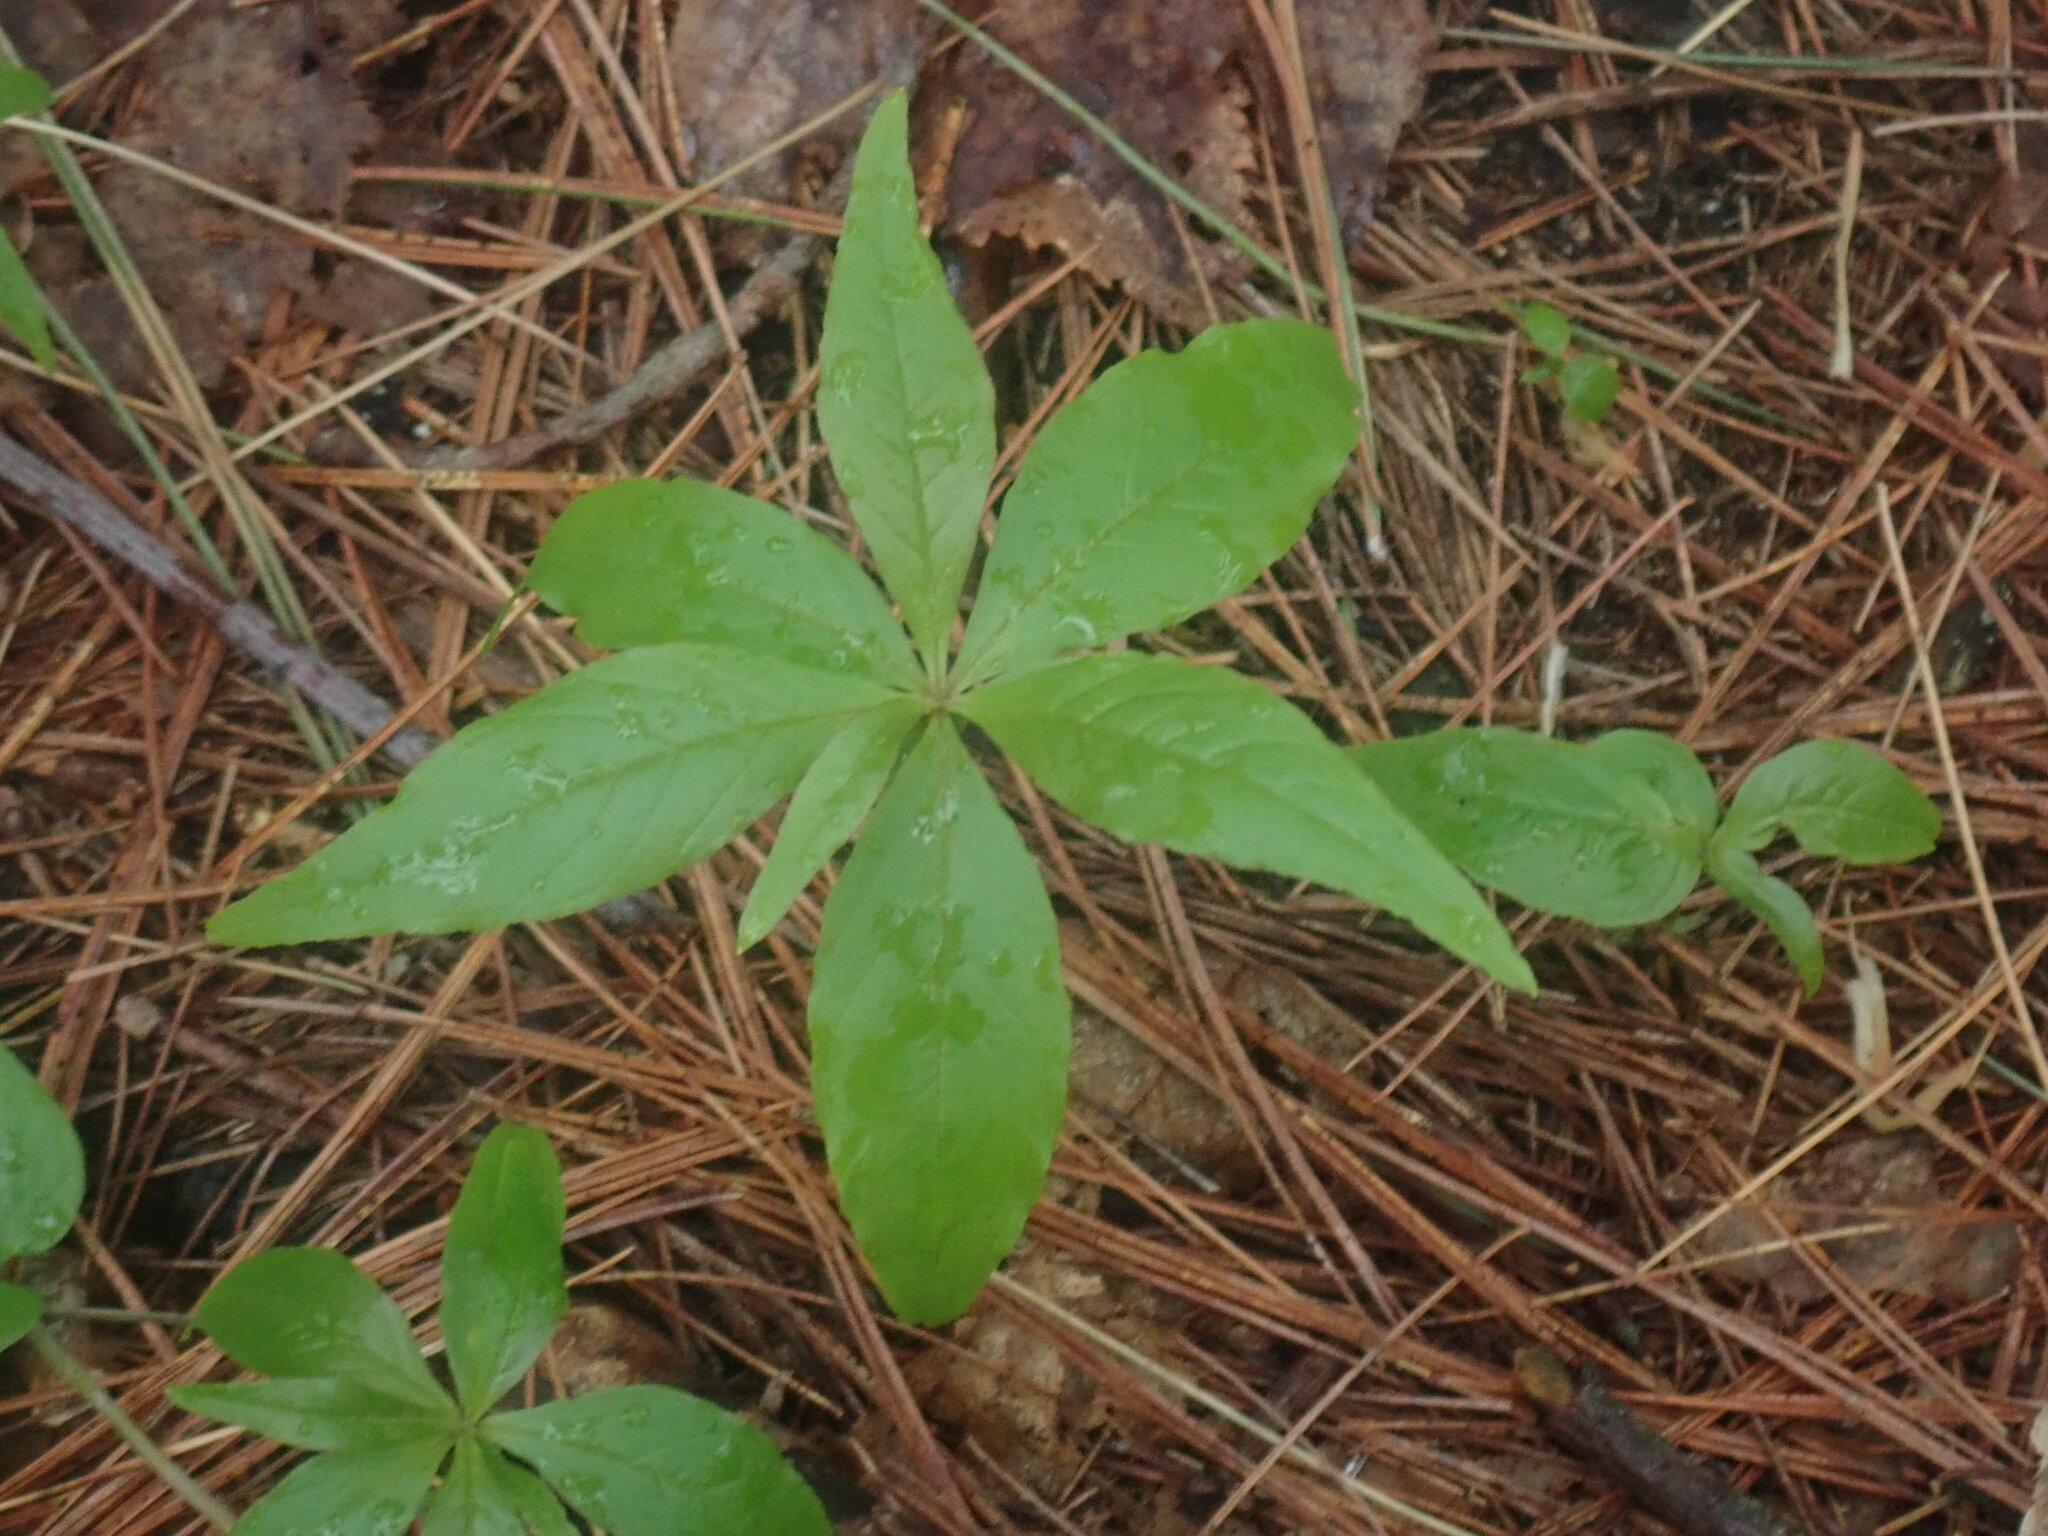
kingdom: Plantae
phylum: Tracheophyta
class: Magnoliopsida
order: Ericales
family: Primulaceae
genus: Lysimachia
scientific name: Lysimachia borealis
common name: American starflower
